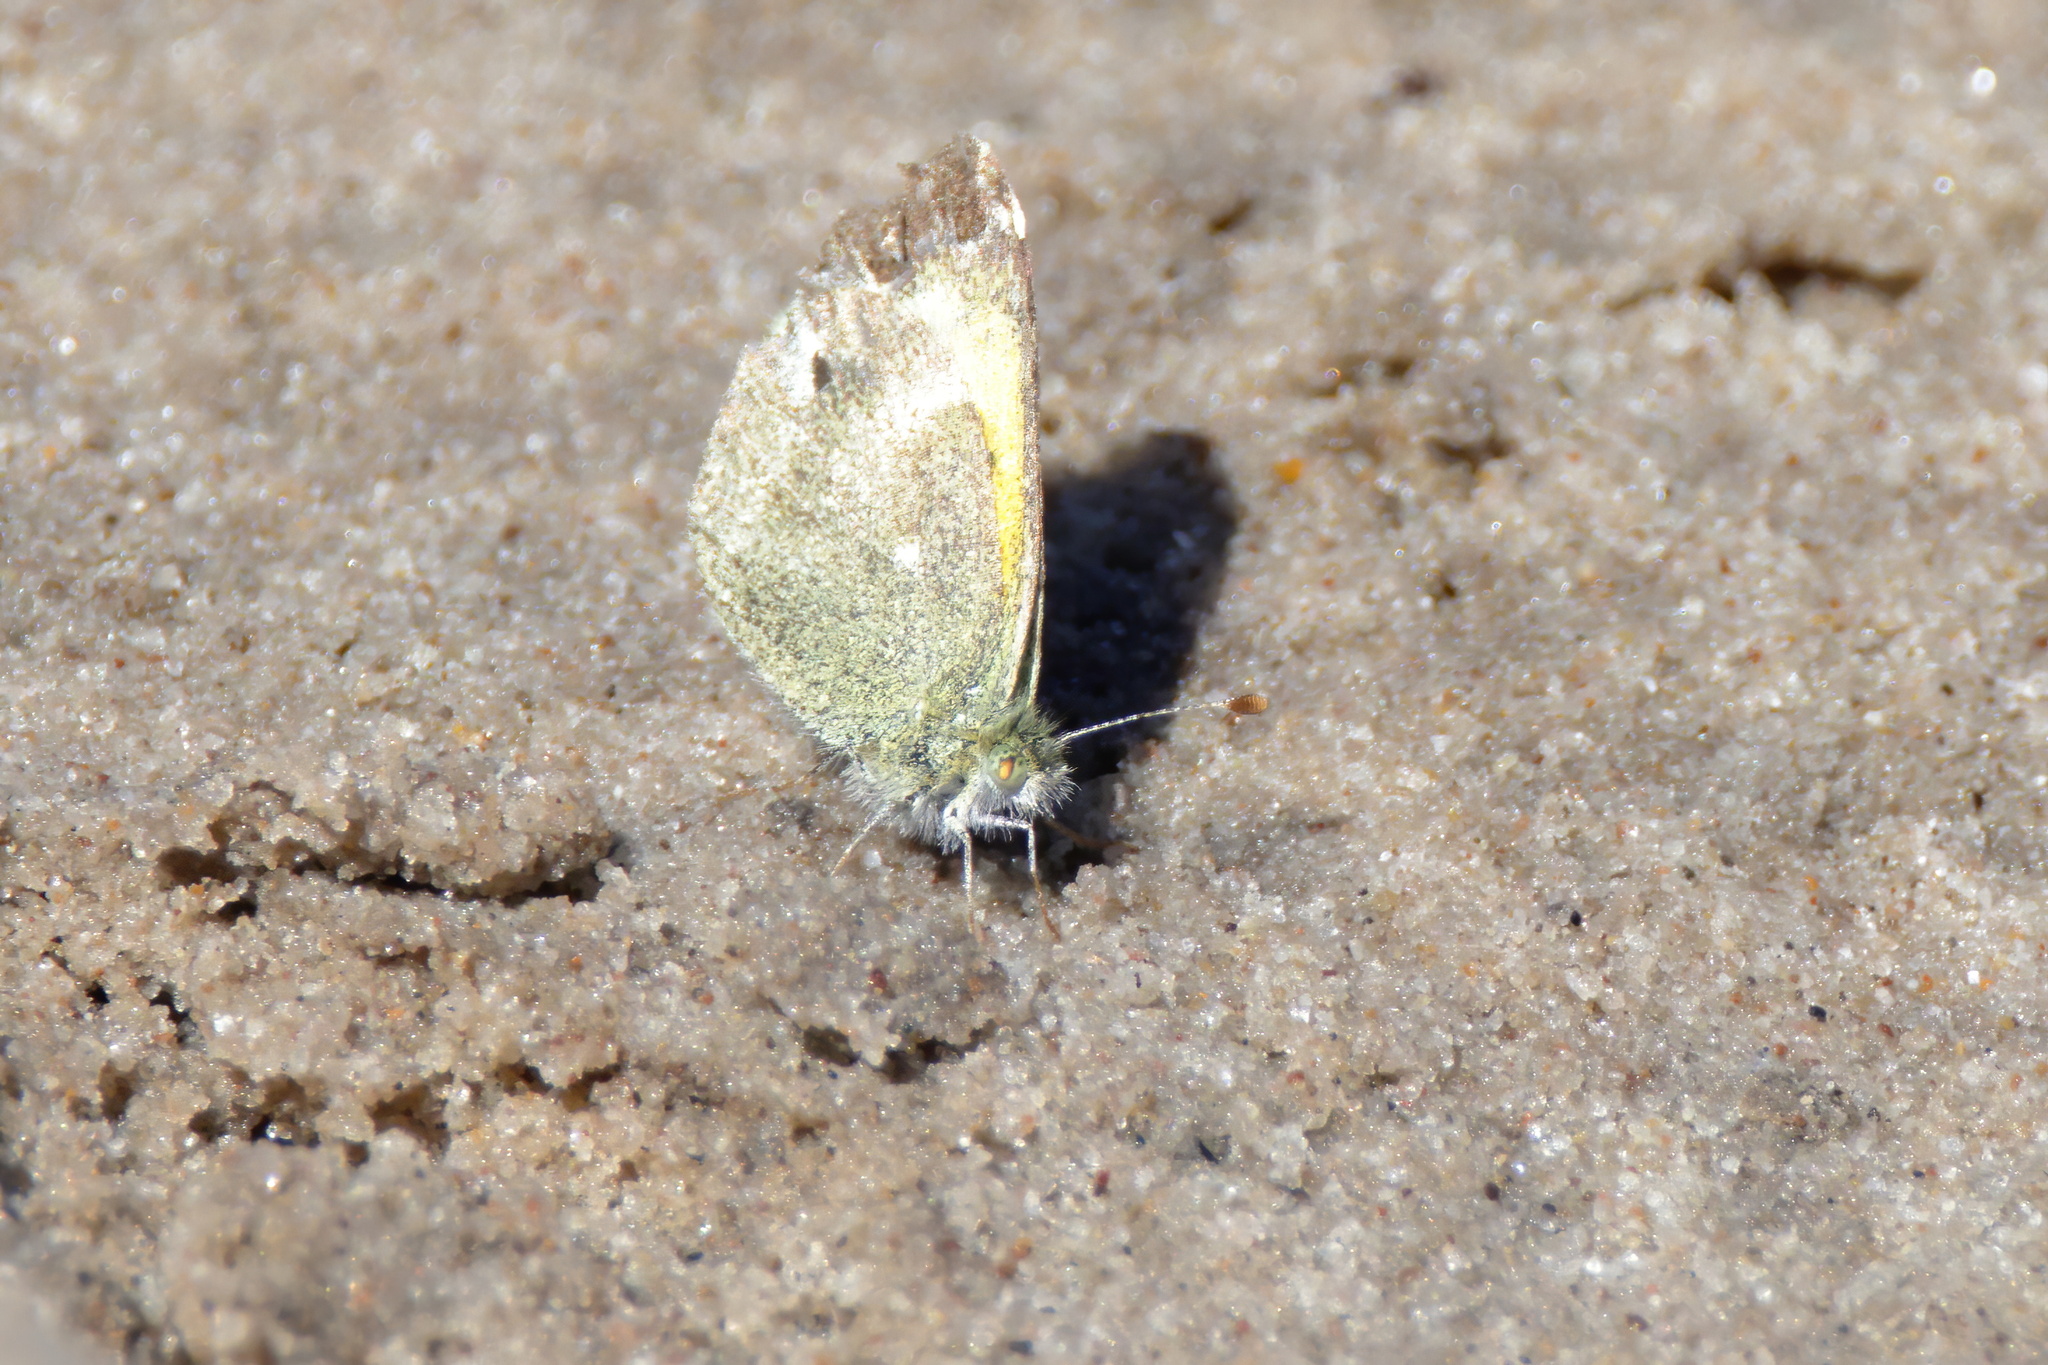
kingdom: Animalia
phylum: Arthropoda
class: Insecta
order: Lepidoptera
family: Pieridae
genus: Nathalis
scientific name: Nathalis iole
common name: Dainty sulphur
